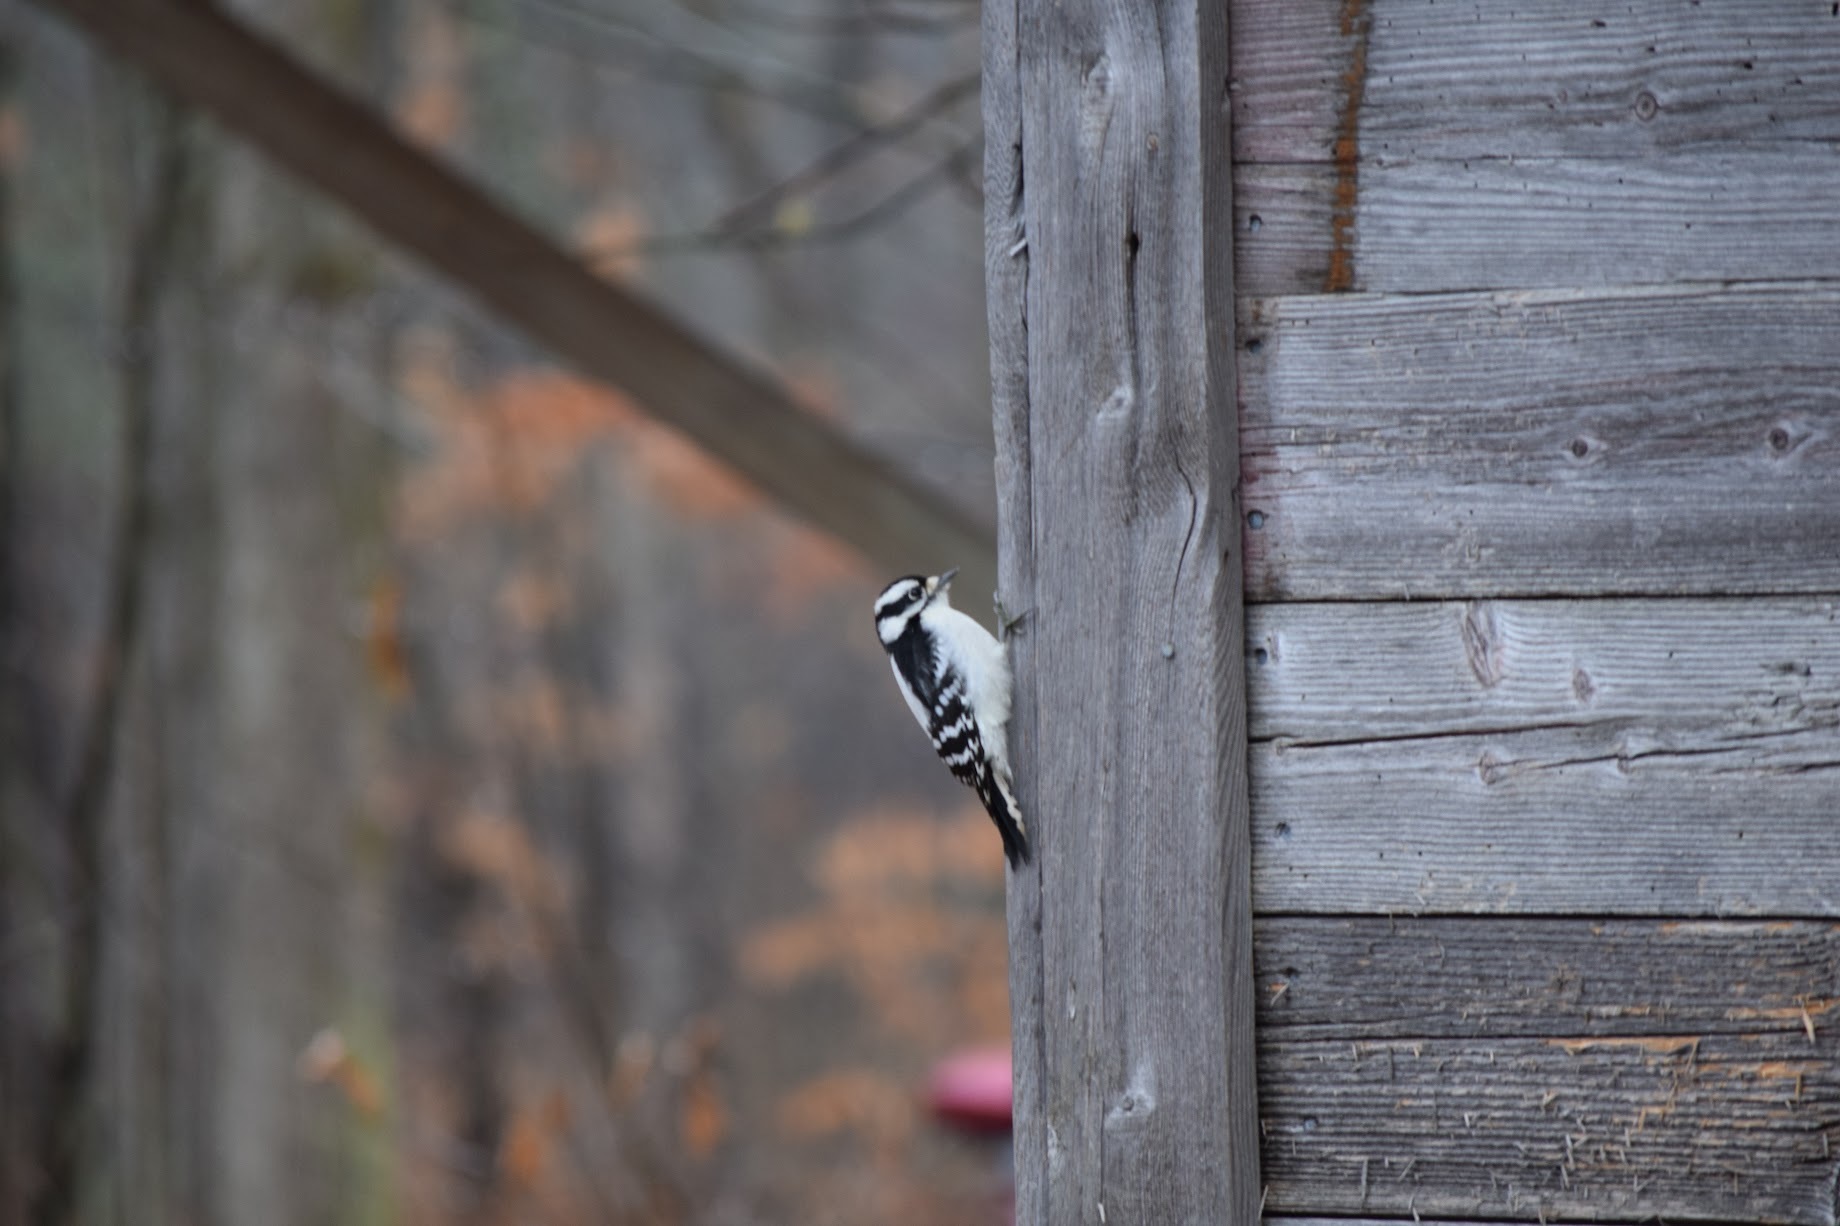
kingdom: Animalia
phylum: Chordata
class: Aves
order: Piciformes
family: Picidae
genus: Dryobates
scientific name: Dryobates pubescens
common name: Downy woodpecker
